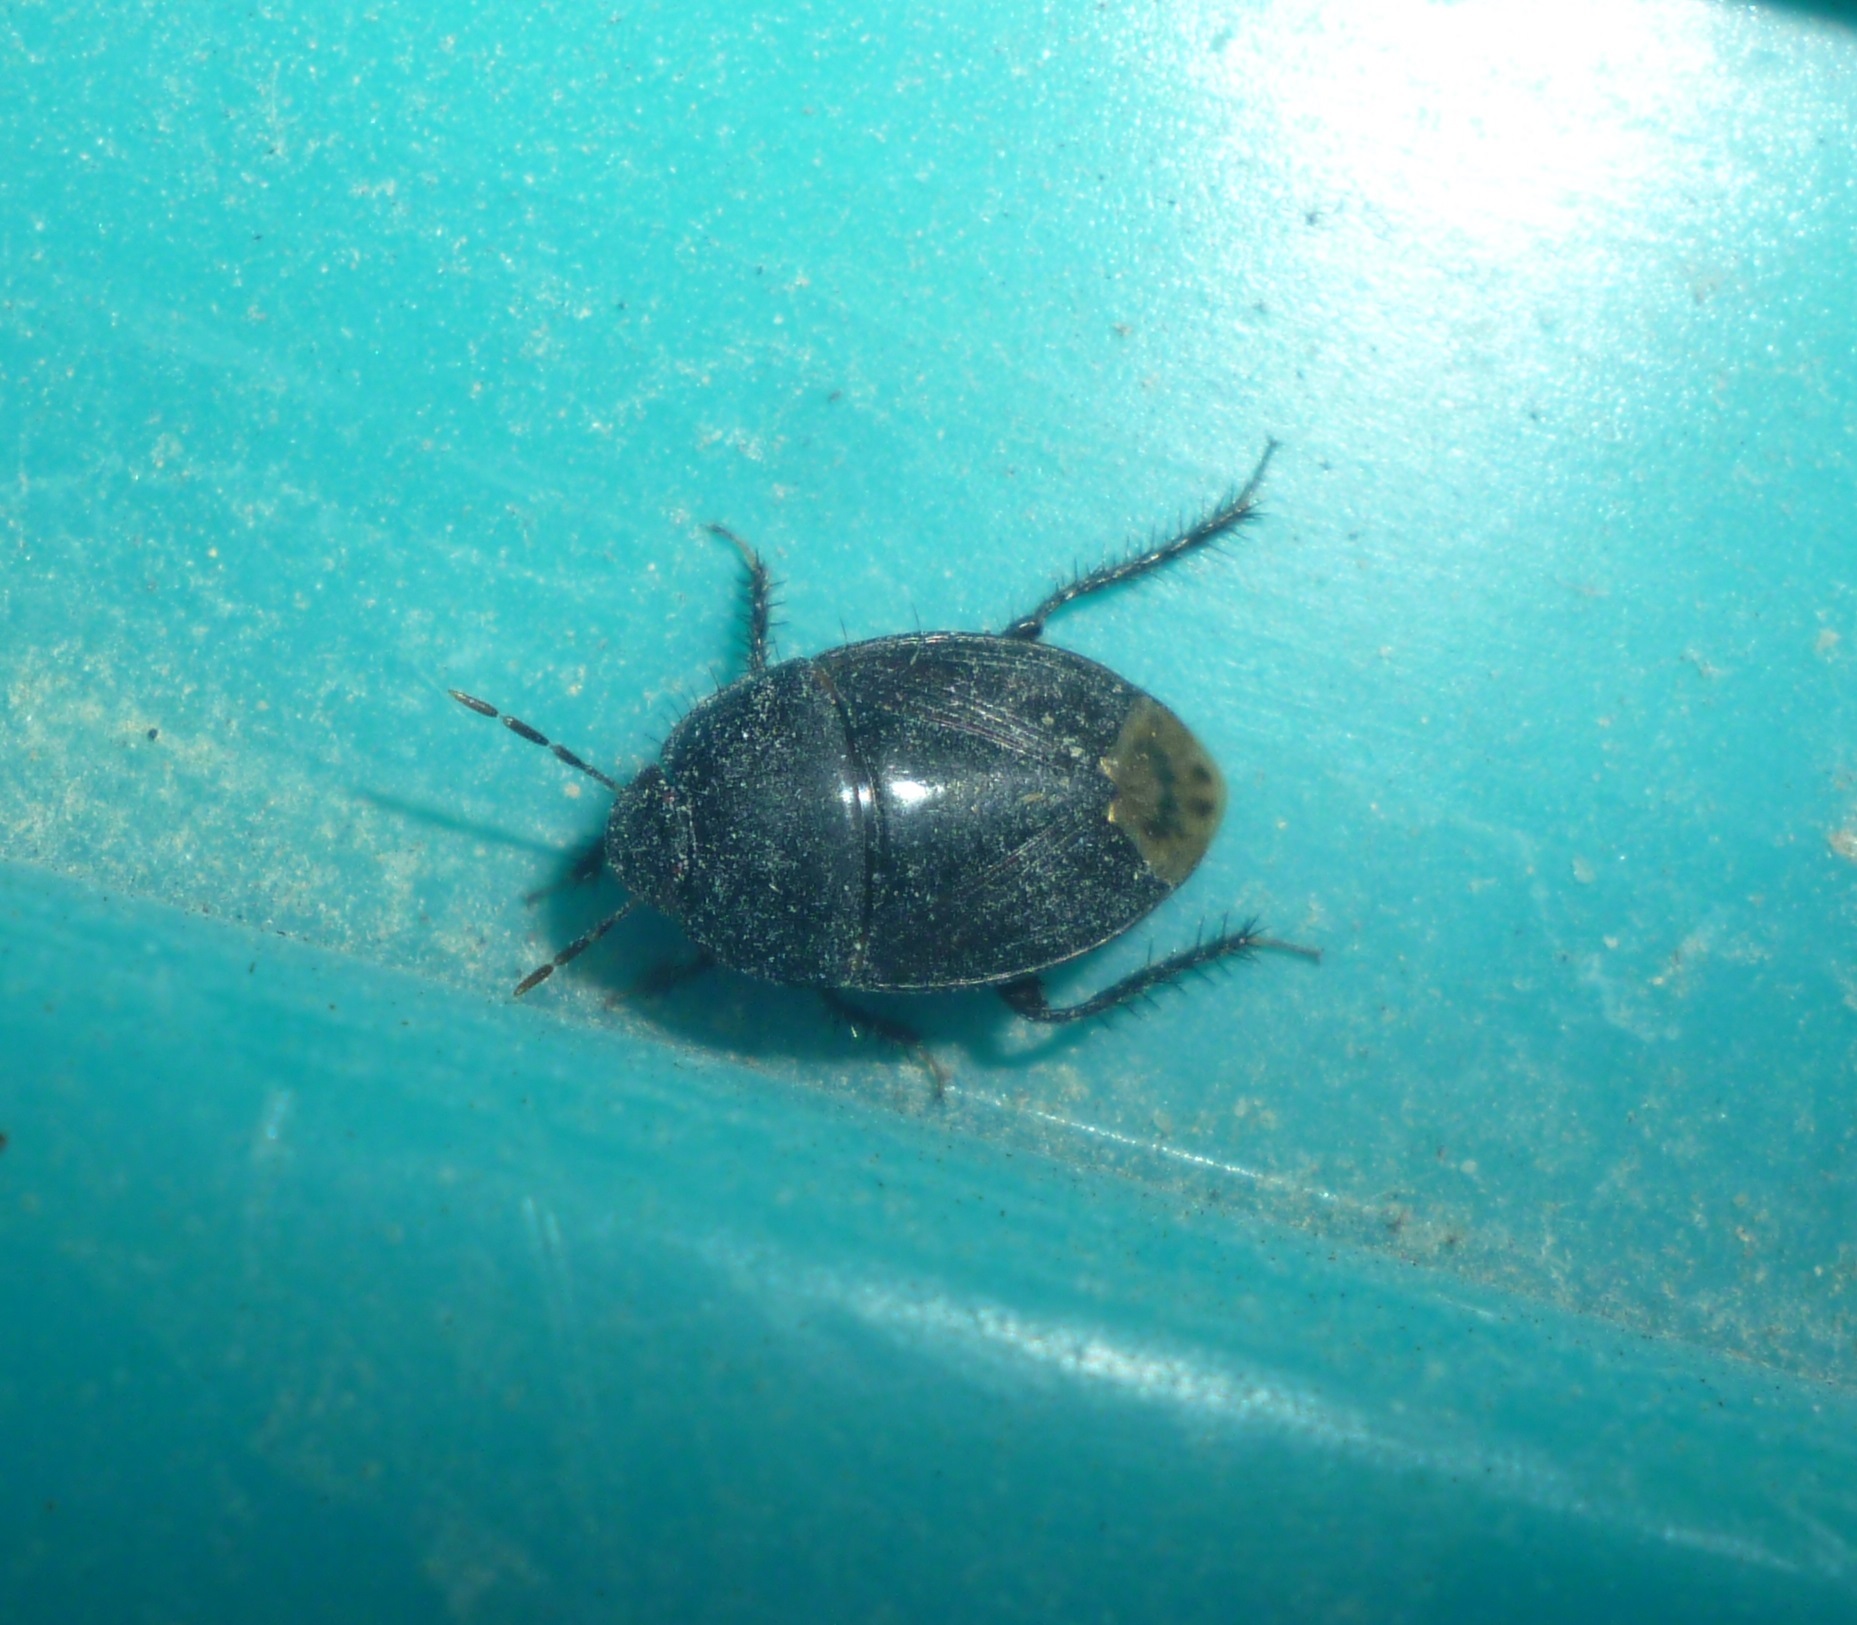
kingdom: Animalia
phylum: Arthropoda
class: Insecta
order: Hemiptera
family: Cydnidae
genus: Macroscytus
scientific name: Macroscytus brunneus
